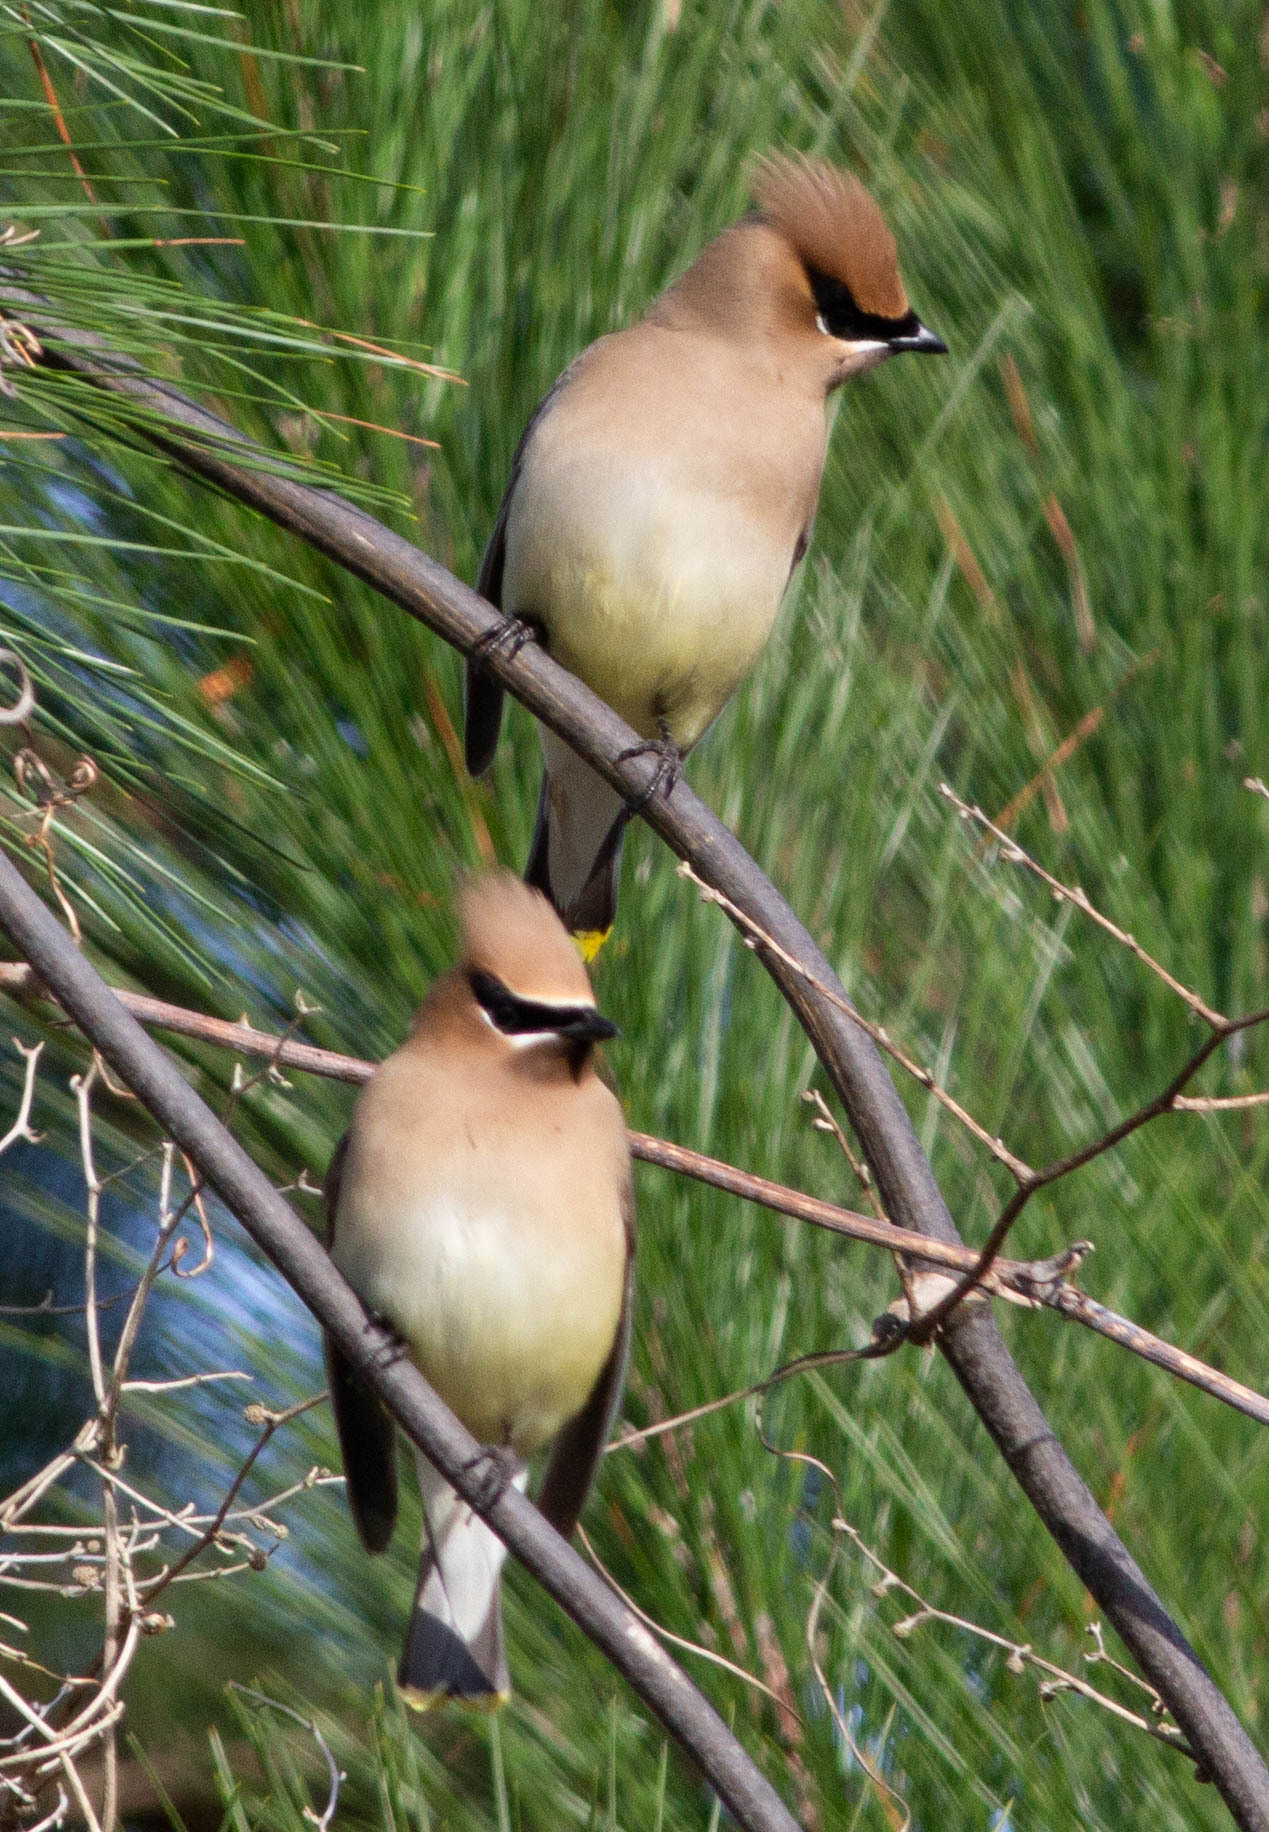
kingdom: Animalia
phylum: Chordata
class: Aves
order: Passeriformes
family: Bombycillidae
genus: Bombycilla
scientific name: Bombycilla cedrorum
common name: Cedar waxwing
